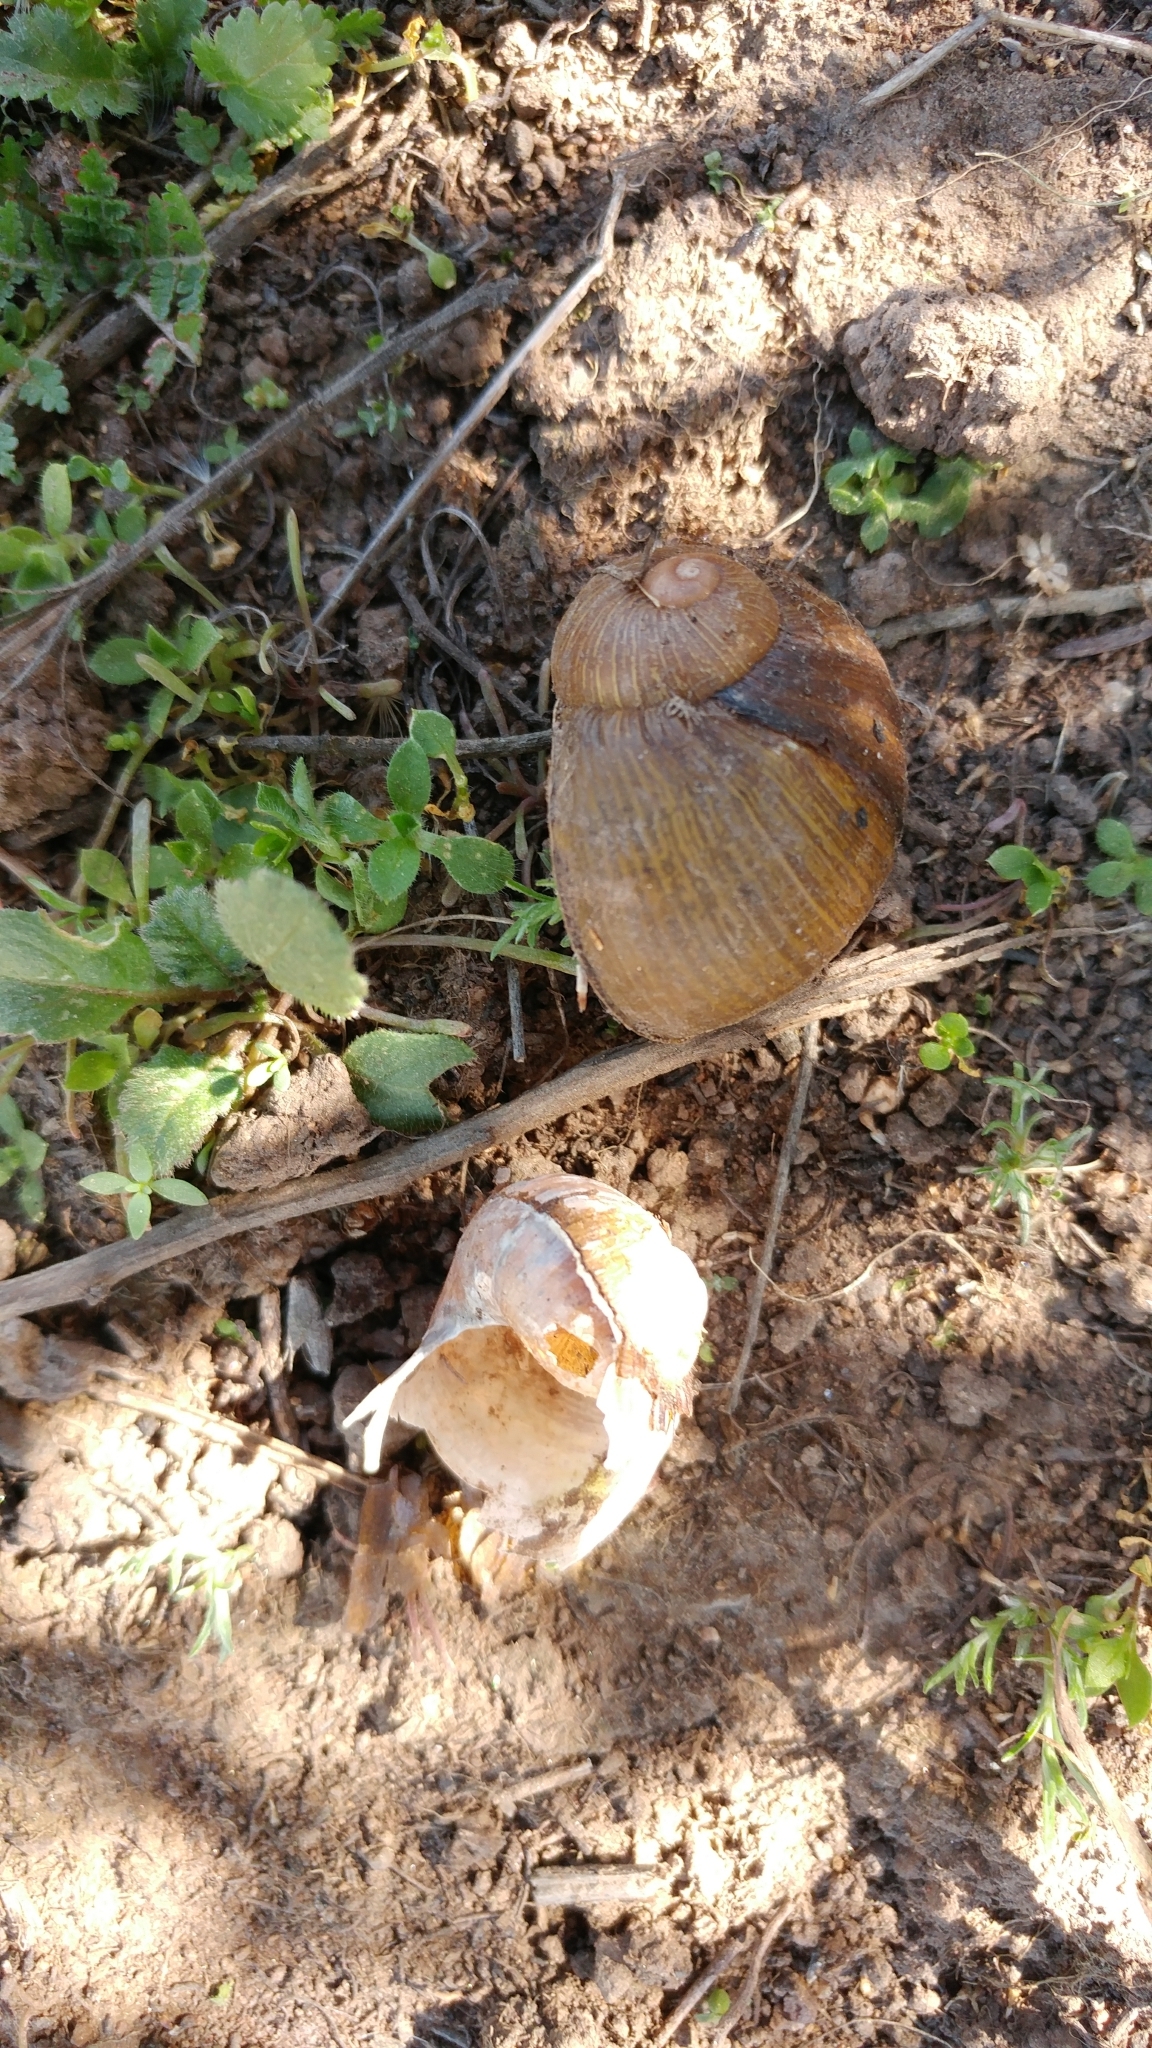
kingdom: Animalia
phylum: Mollusca
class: Gastropoda
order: Stylommatophora
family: Helicidae
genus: Cantareus
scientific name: Cantareus apertus
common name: Green gardensnail
